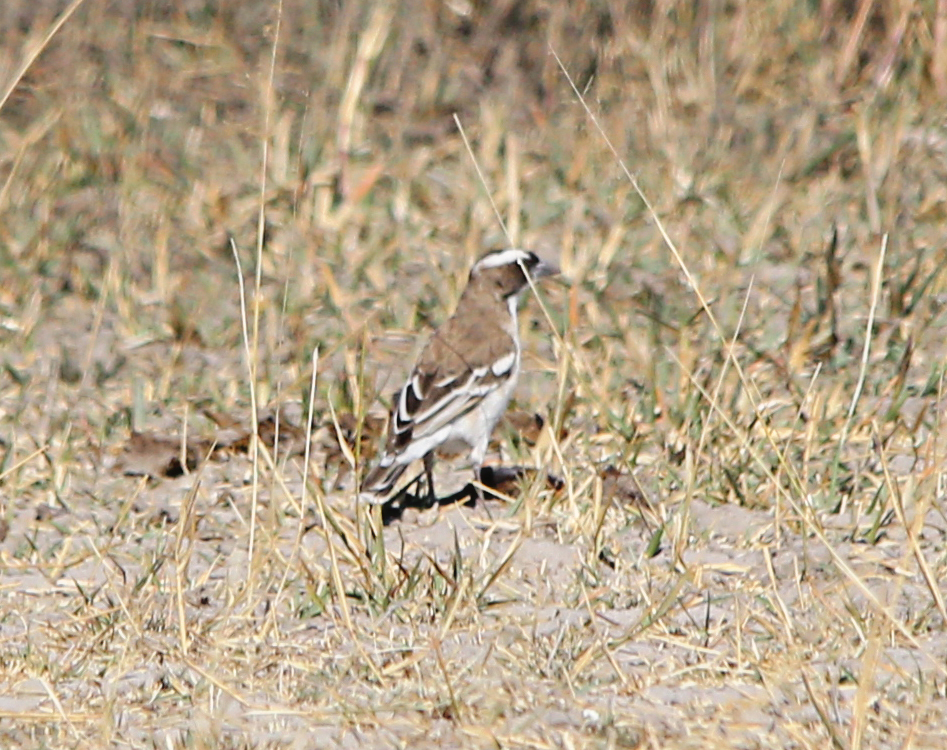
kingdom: Animalia
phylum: Chordata
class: Aves
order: Passeriformes
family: Passeridae
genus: Plocepasser
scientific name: Plocepasser mahali
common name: White-browed sparrow-weaver
